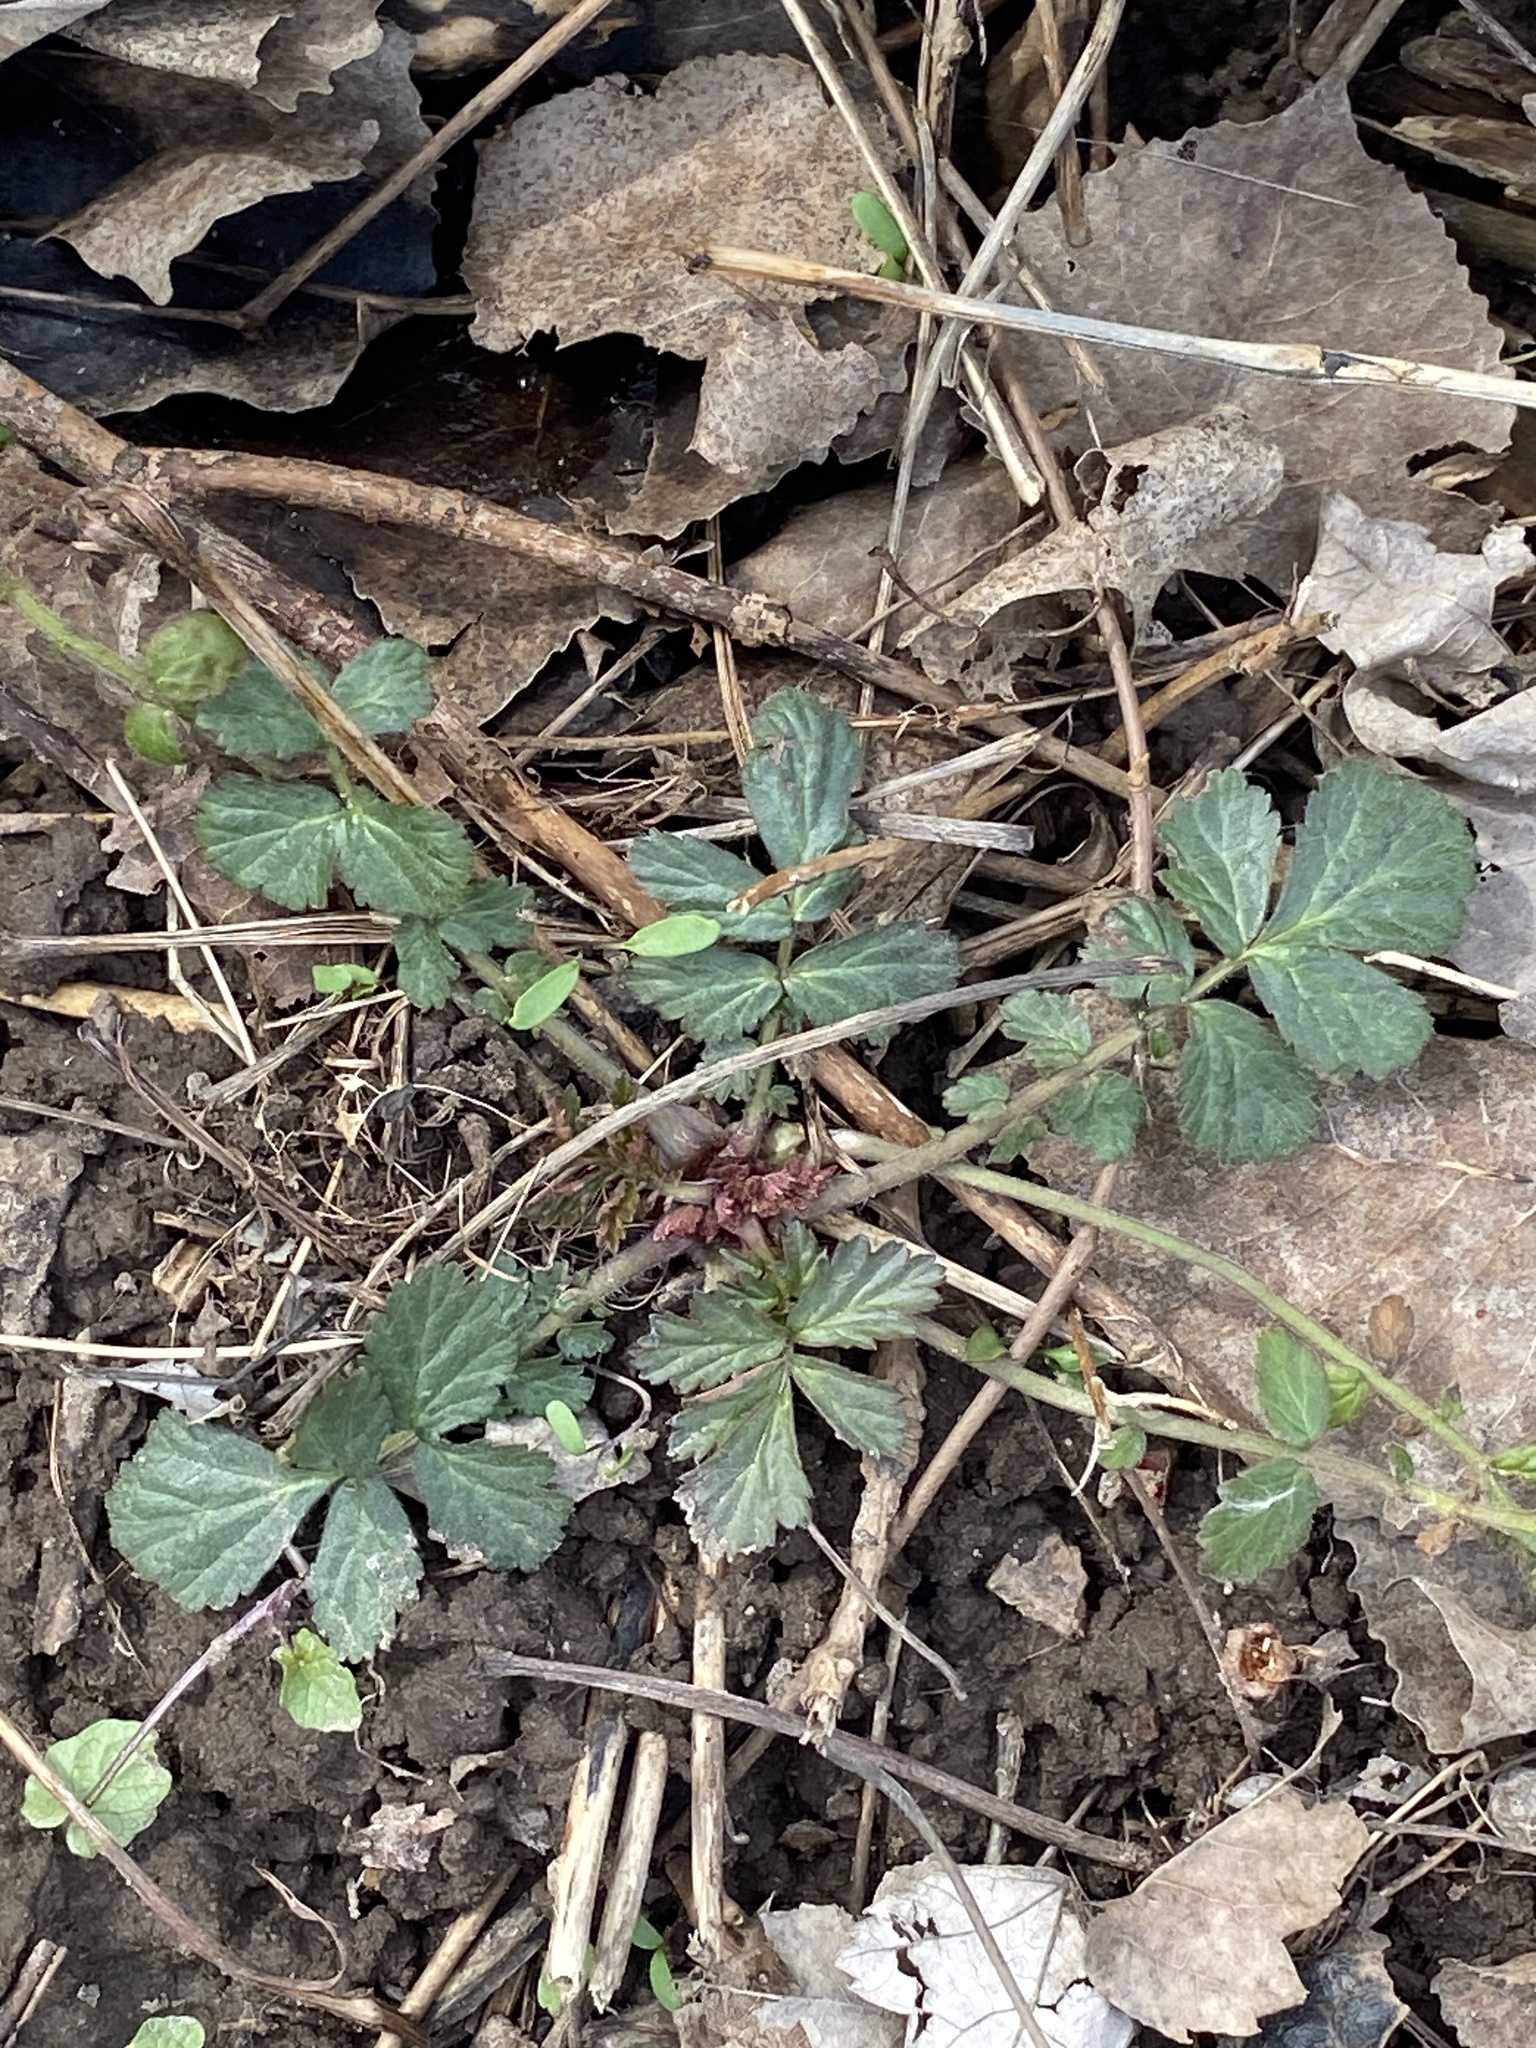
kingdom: Plantae
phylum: Tracheophyta
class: Magnoliopsida
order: Rosales
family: Rosaceae
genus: Geum
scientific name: Geum canadense
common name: White avens
